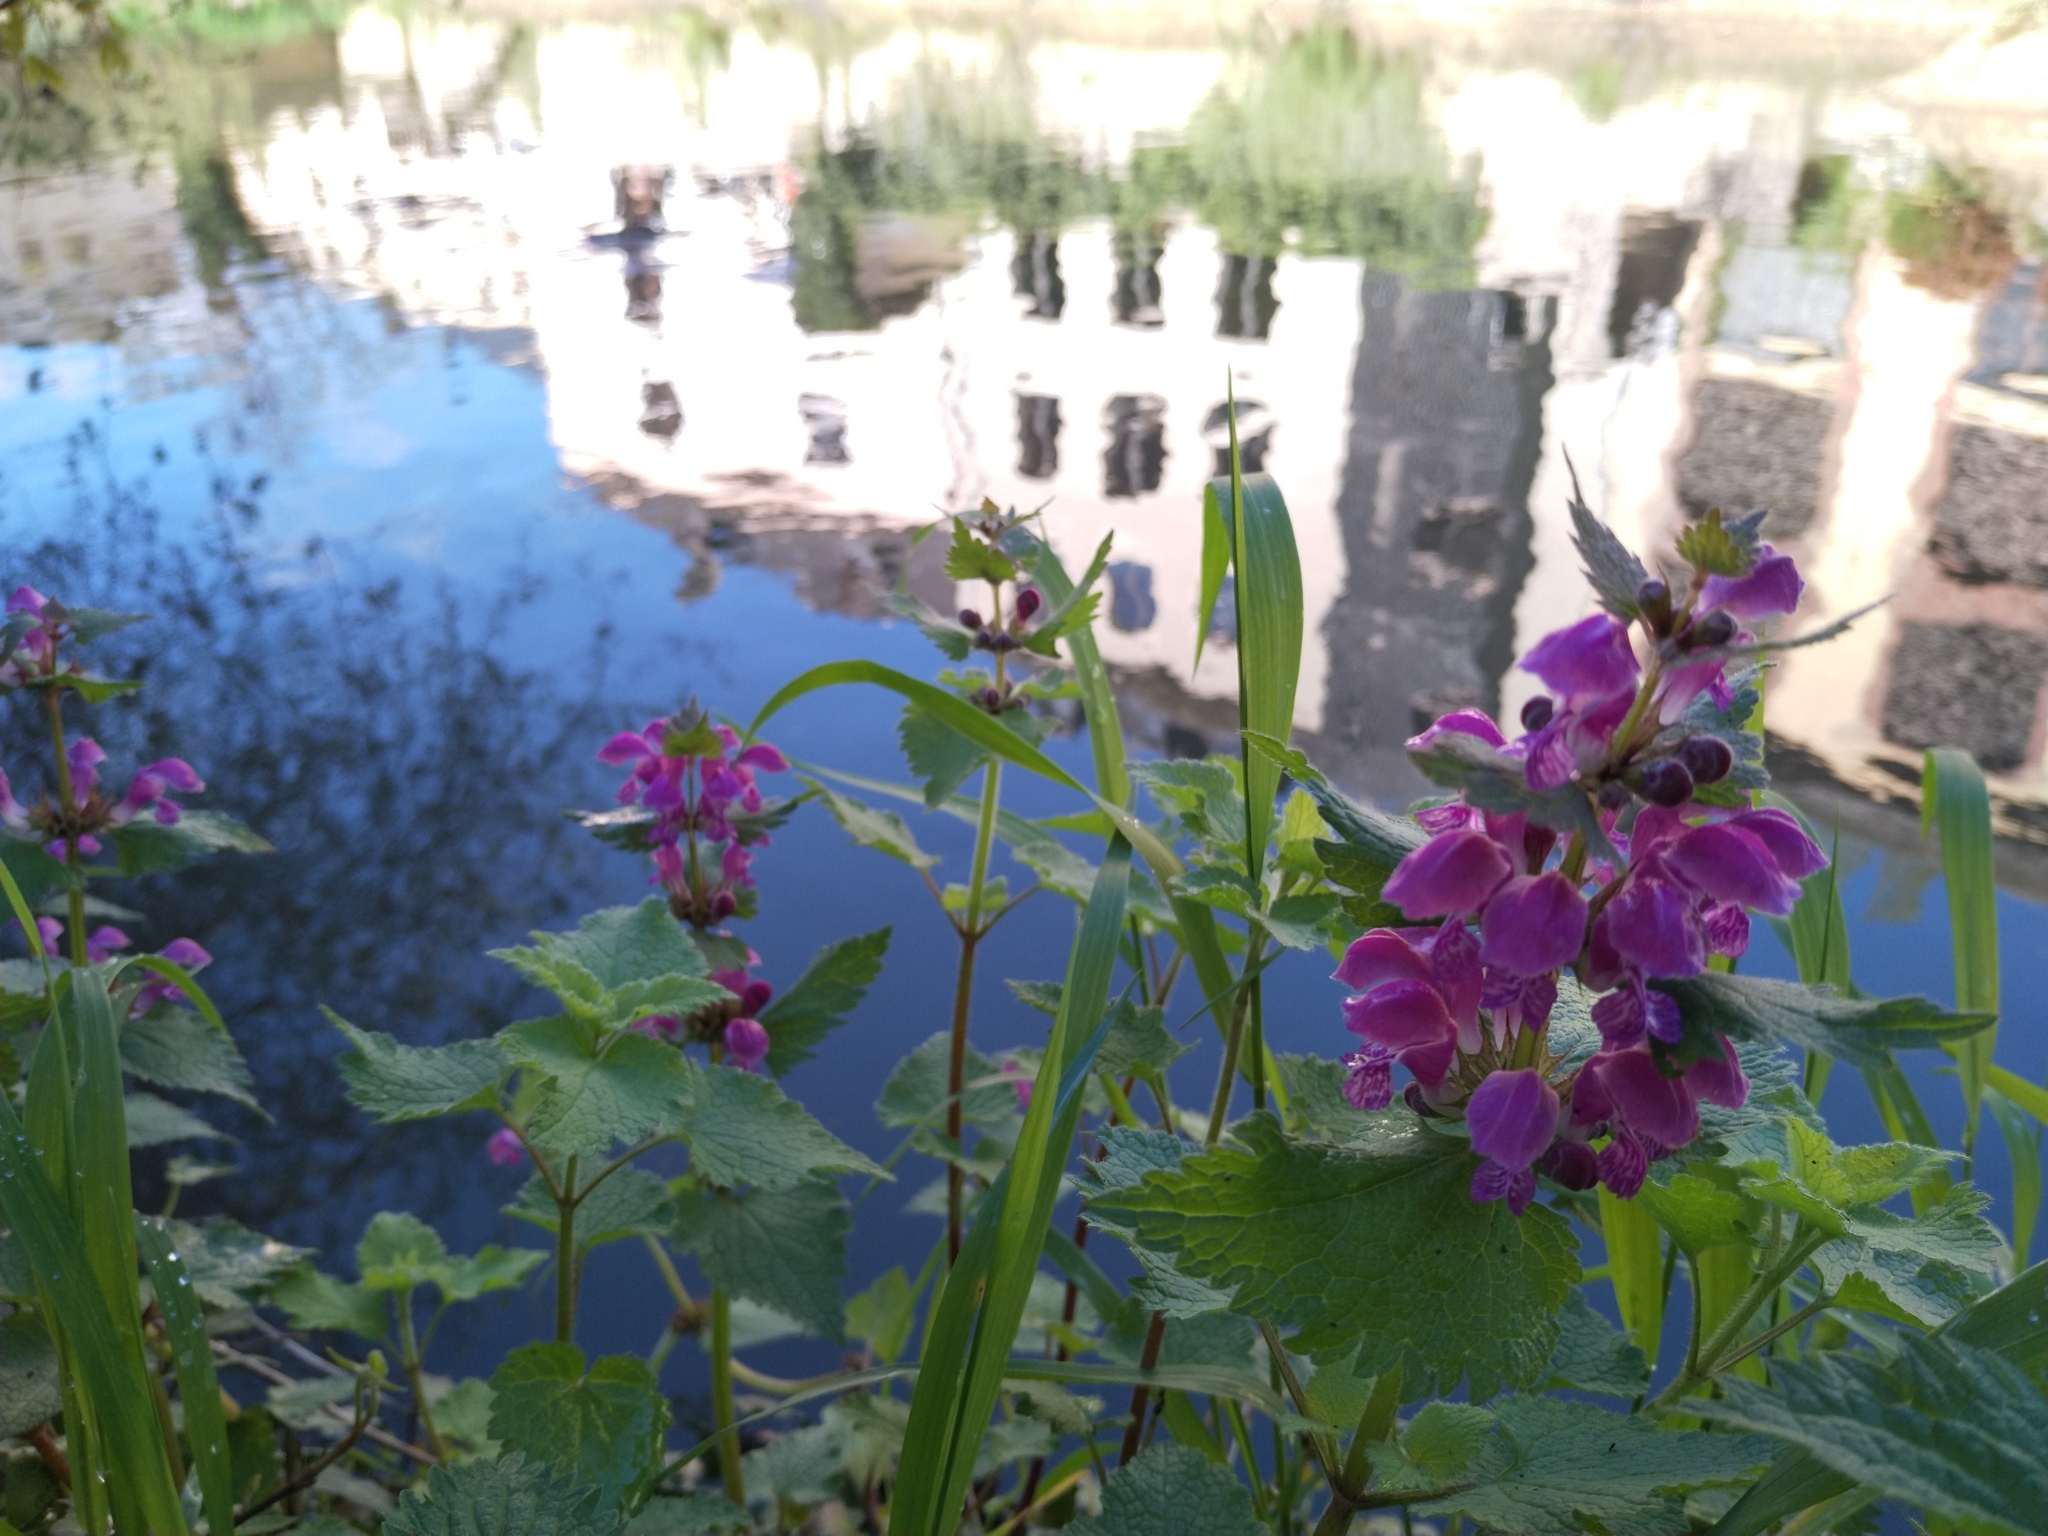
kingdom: Plantae
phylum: Tracheophyta
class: Magnoliopsida
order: Lamiales
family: Lamiaceae
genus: Lamium
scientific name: Lamium maculatum
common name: Spotted dead-nettle
